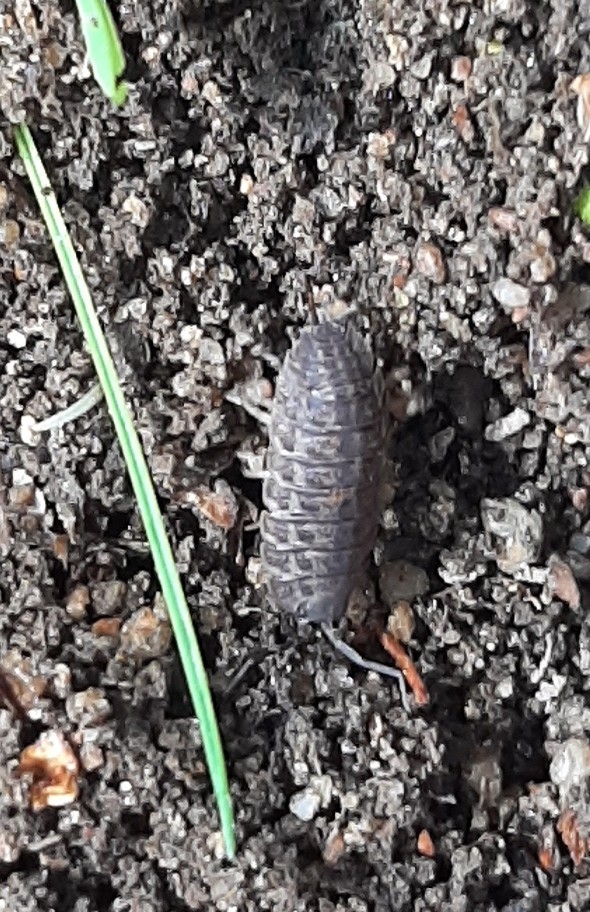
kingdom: Animalia
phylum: Arthropoda
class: Malacostraca
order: Isopoda
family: Trachelipodidae
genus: Trachelipus
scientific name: Trachelipus rathkii
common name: Isopod
